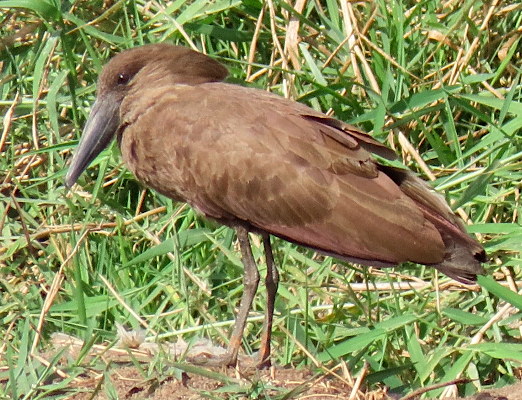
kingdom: Animalia
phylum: Chordata
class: Aves
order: Pelecaniformes
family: Scopidae
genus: Scopus
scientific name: Scopus umbretta
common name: Hamerkop
